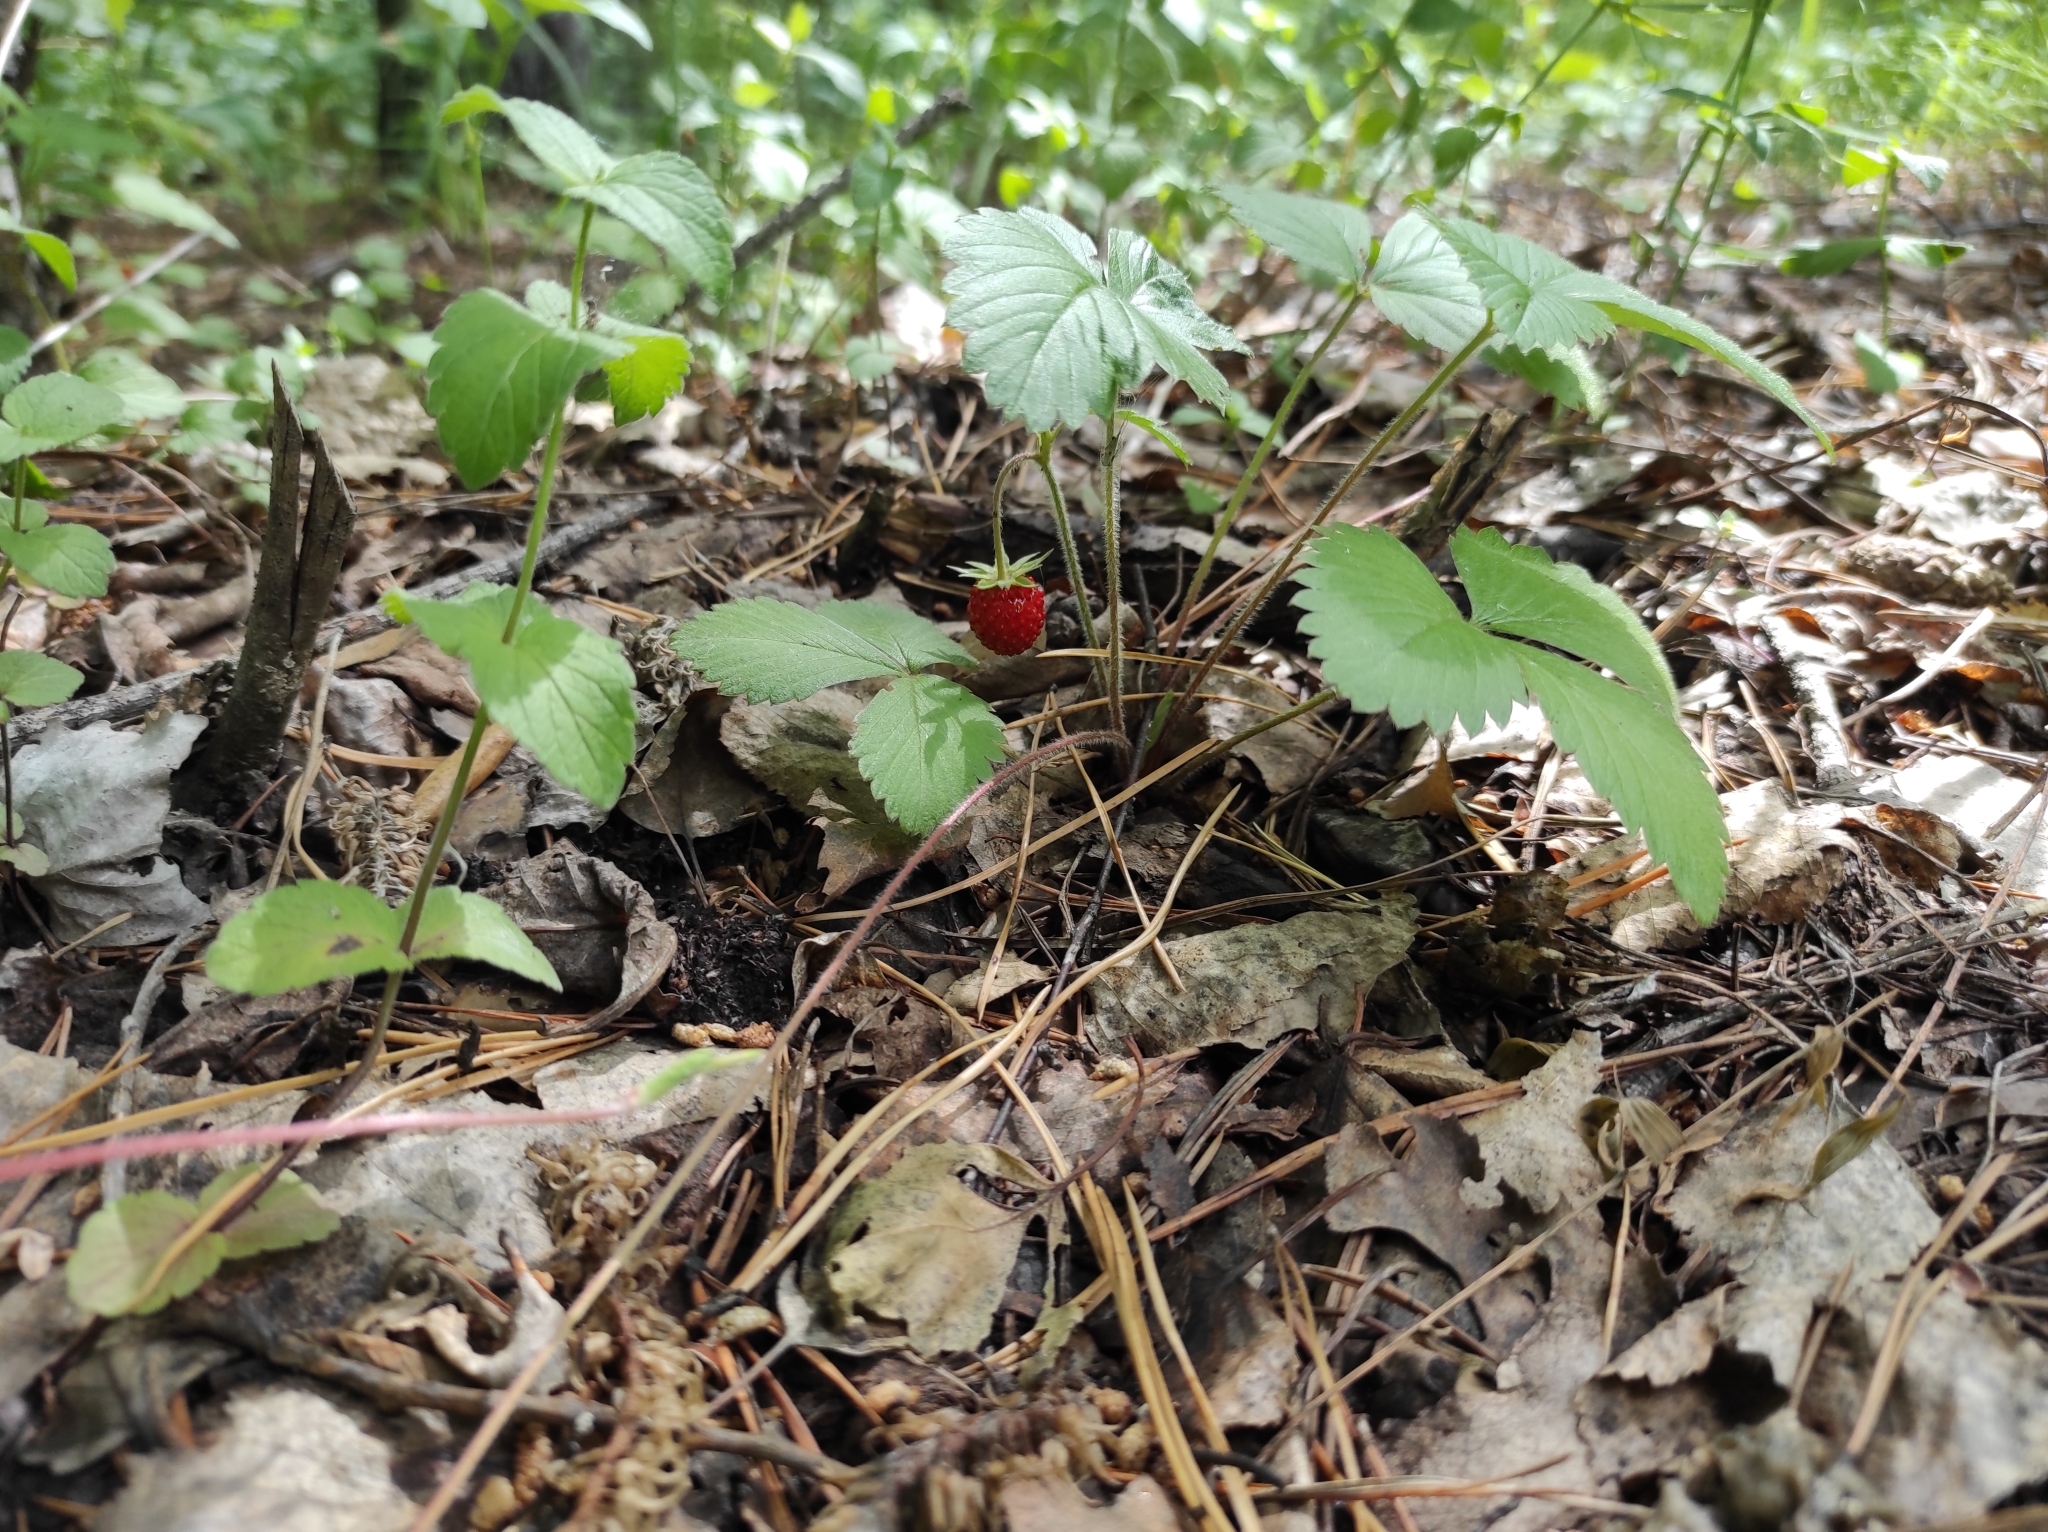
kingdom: Plantae
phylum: Tracheophyta
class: Magnoliopsida
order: Rosales
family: Rosaceae
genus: Fragaria
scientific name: Fragaria vesca
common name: Wild strawberry
